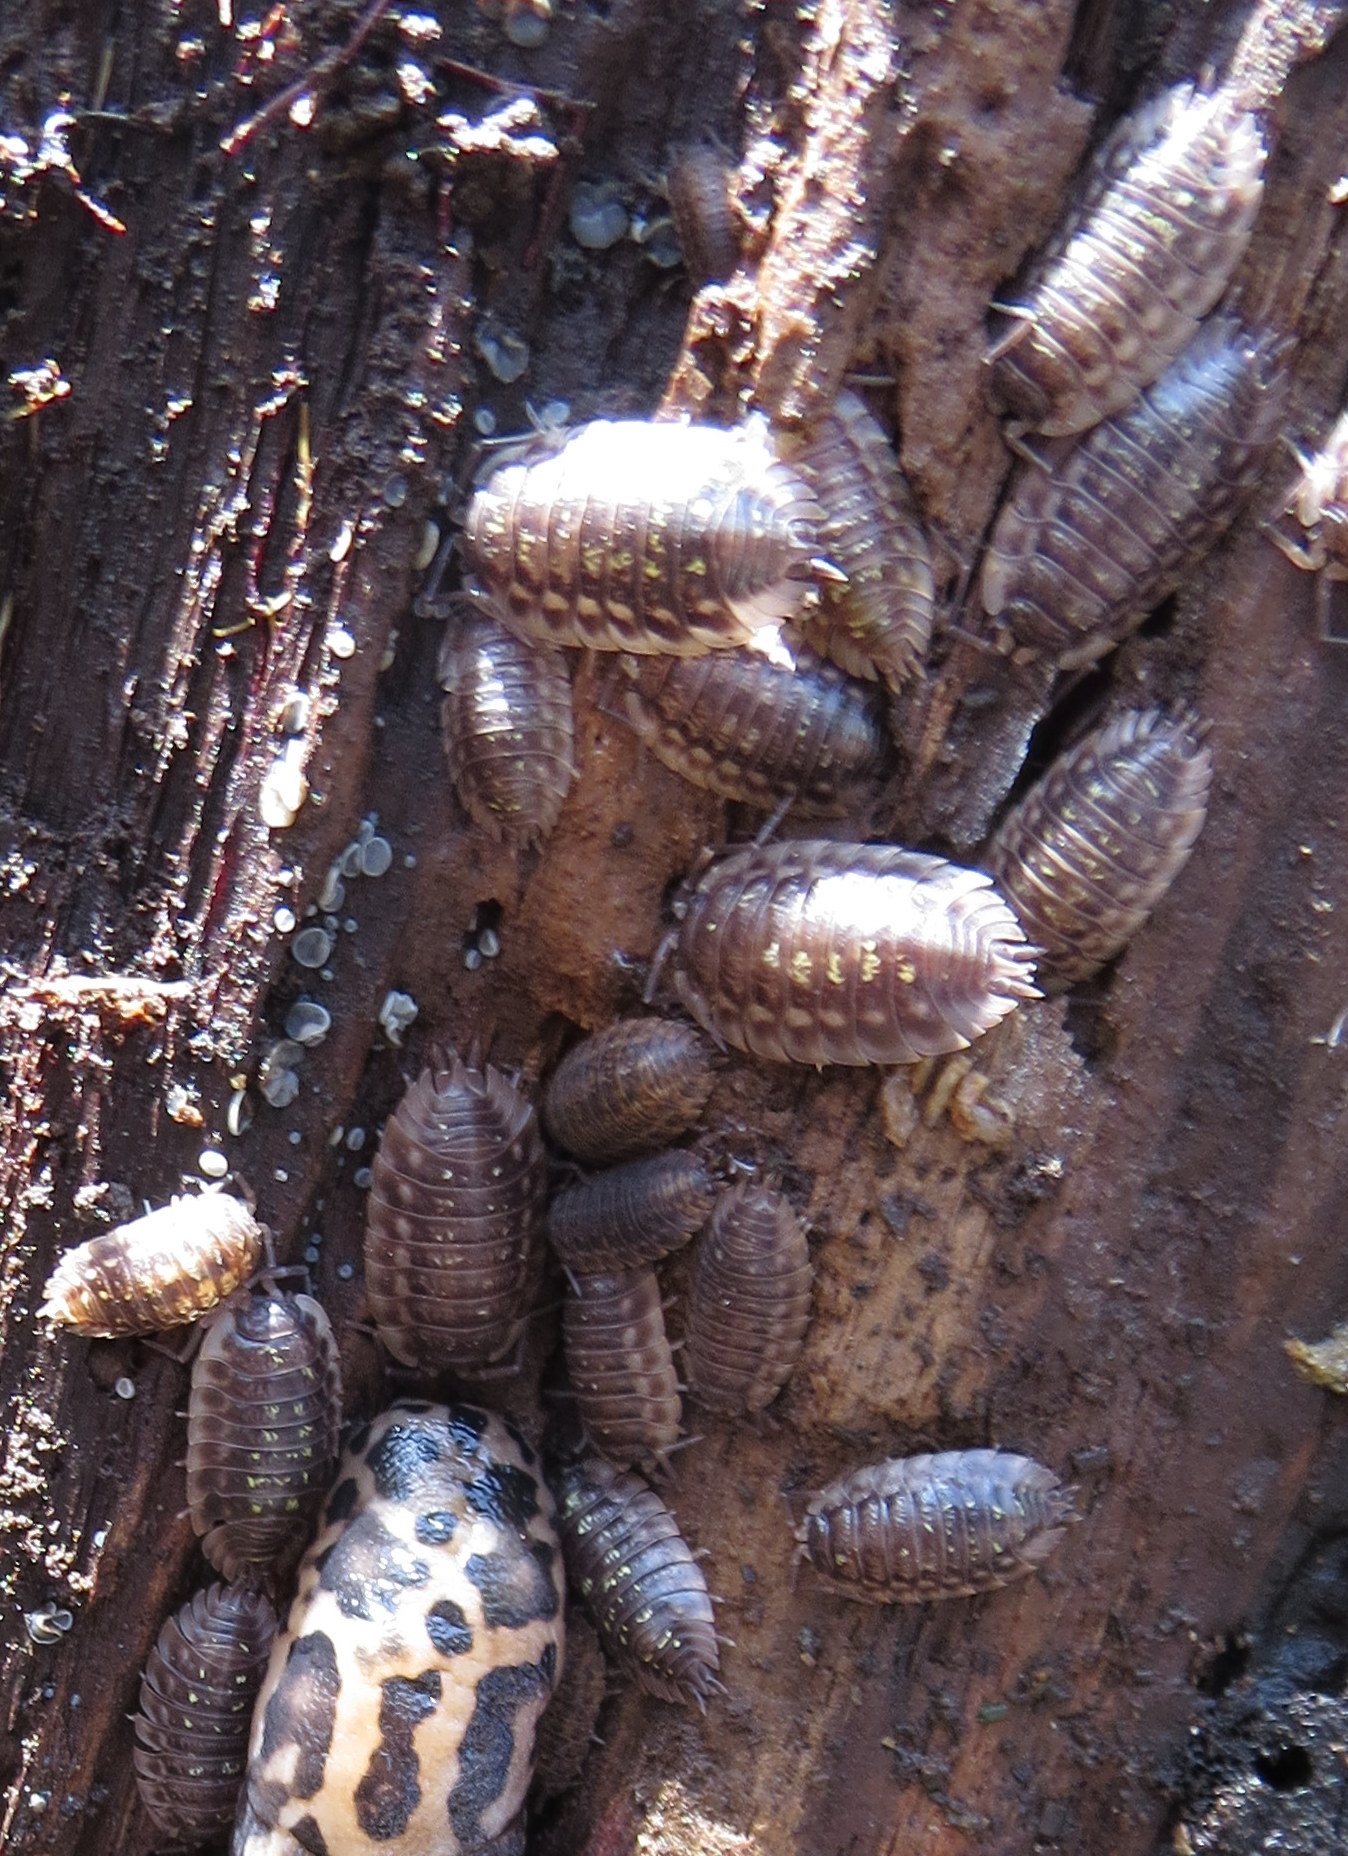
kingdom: Animalia
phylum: Arthropoda
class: Malacostraca
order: Isopoda
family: Oniscidae
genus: Oniscus
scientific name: Oniscus asellus
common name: Common shiny woodlouse
